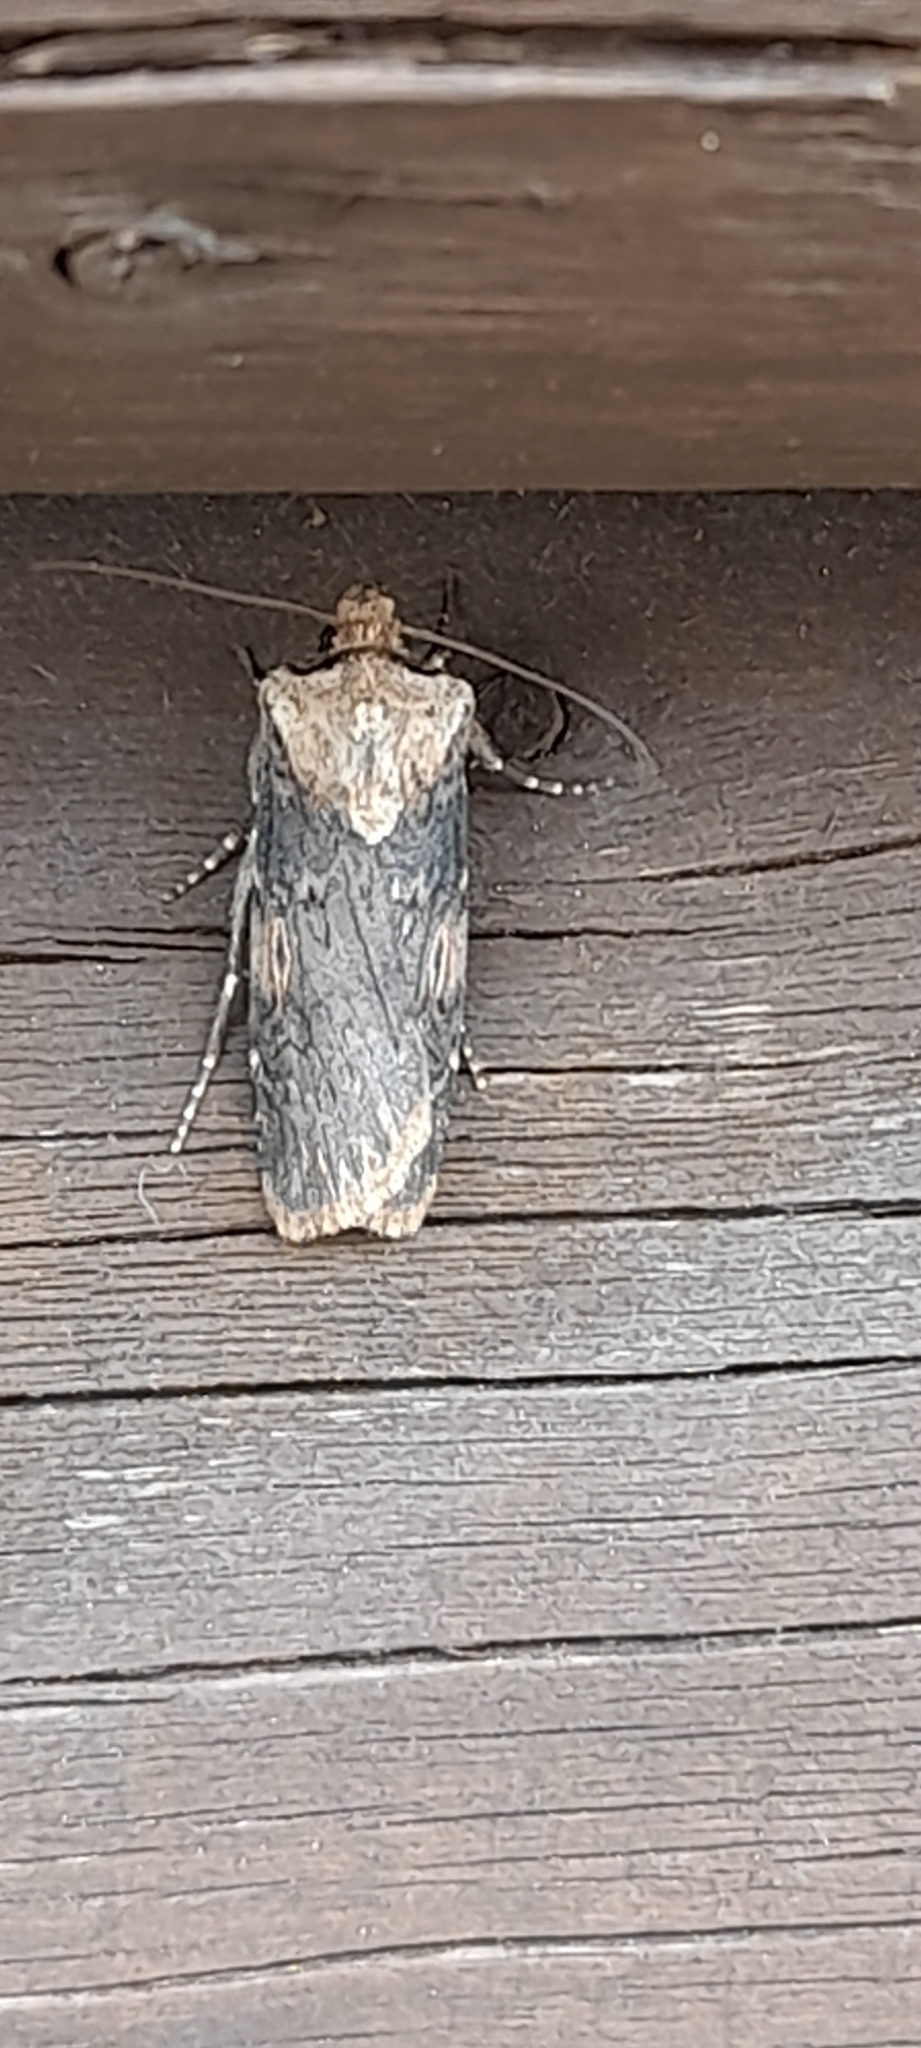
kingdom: Animalia
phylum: Arthropoda
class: Insecta
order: Lepidoptera
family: Noctuidae
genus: Agrotis
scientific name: Agrotis puta
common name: Shuttle-shaped dart
